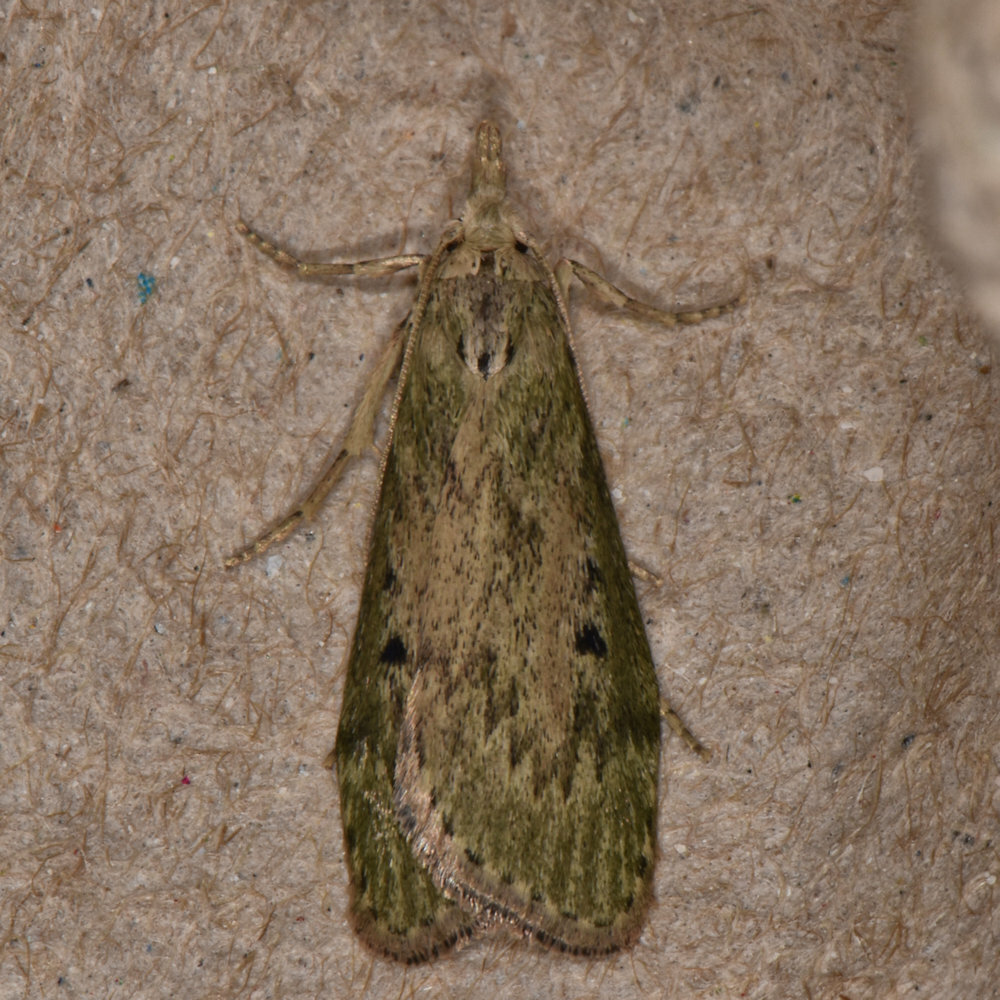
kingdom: Animalia
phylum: Arthropoda
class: Insecta
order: Lepidoptera
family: Pyralidae
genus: Aphomia
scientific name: Aphomia sociella
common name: Bee moth
